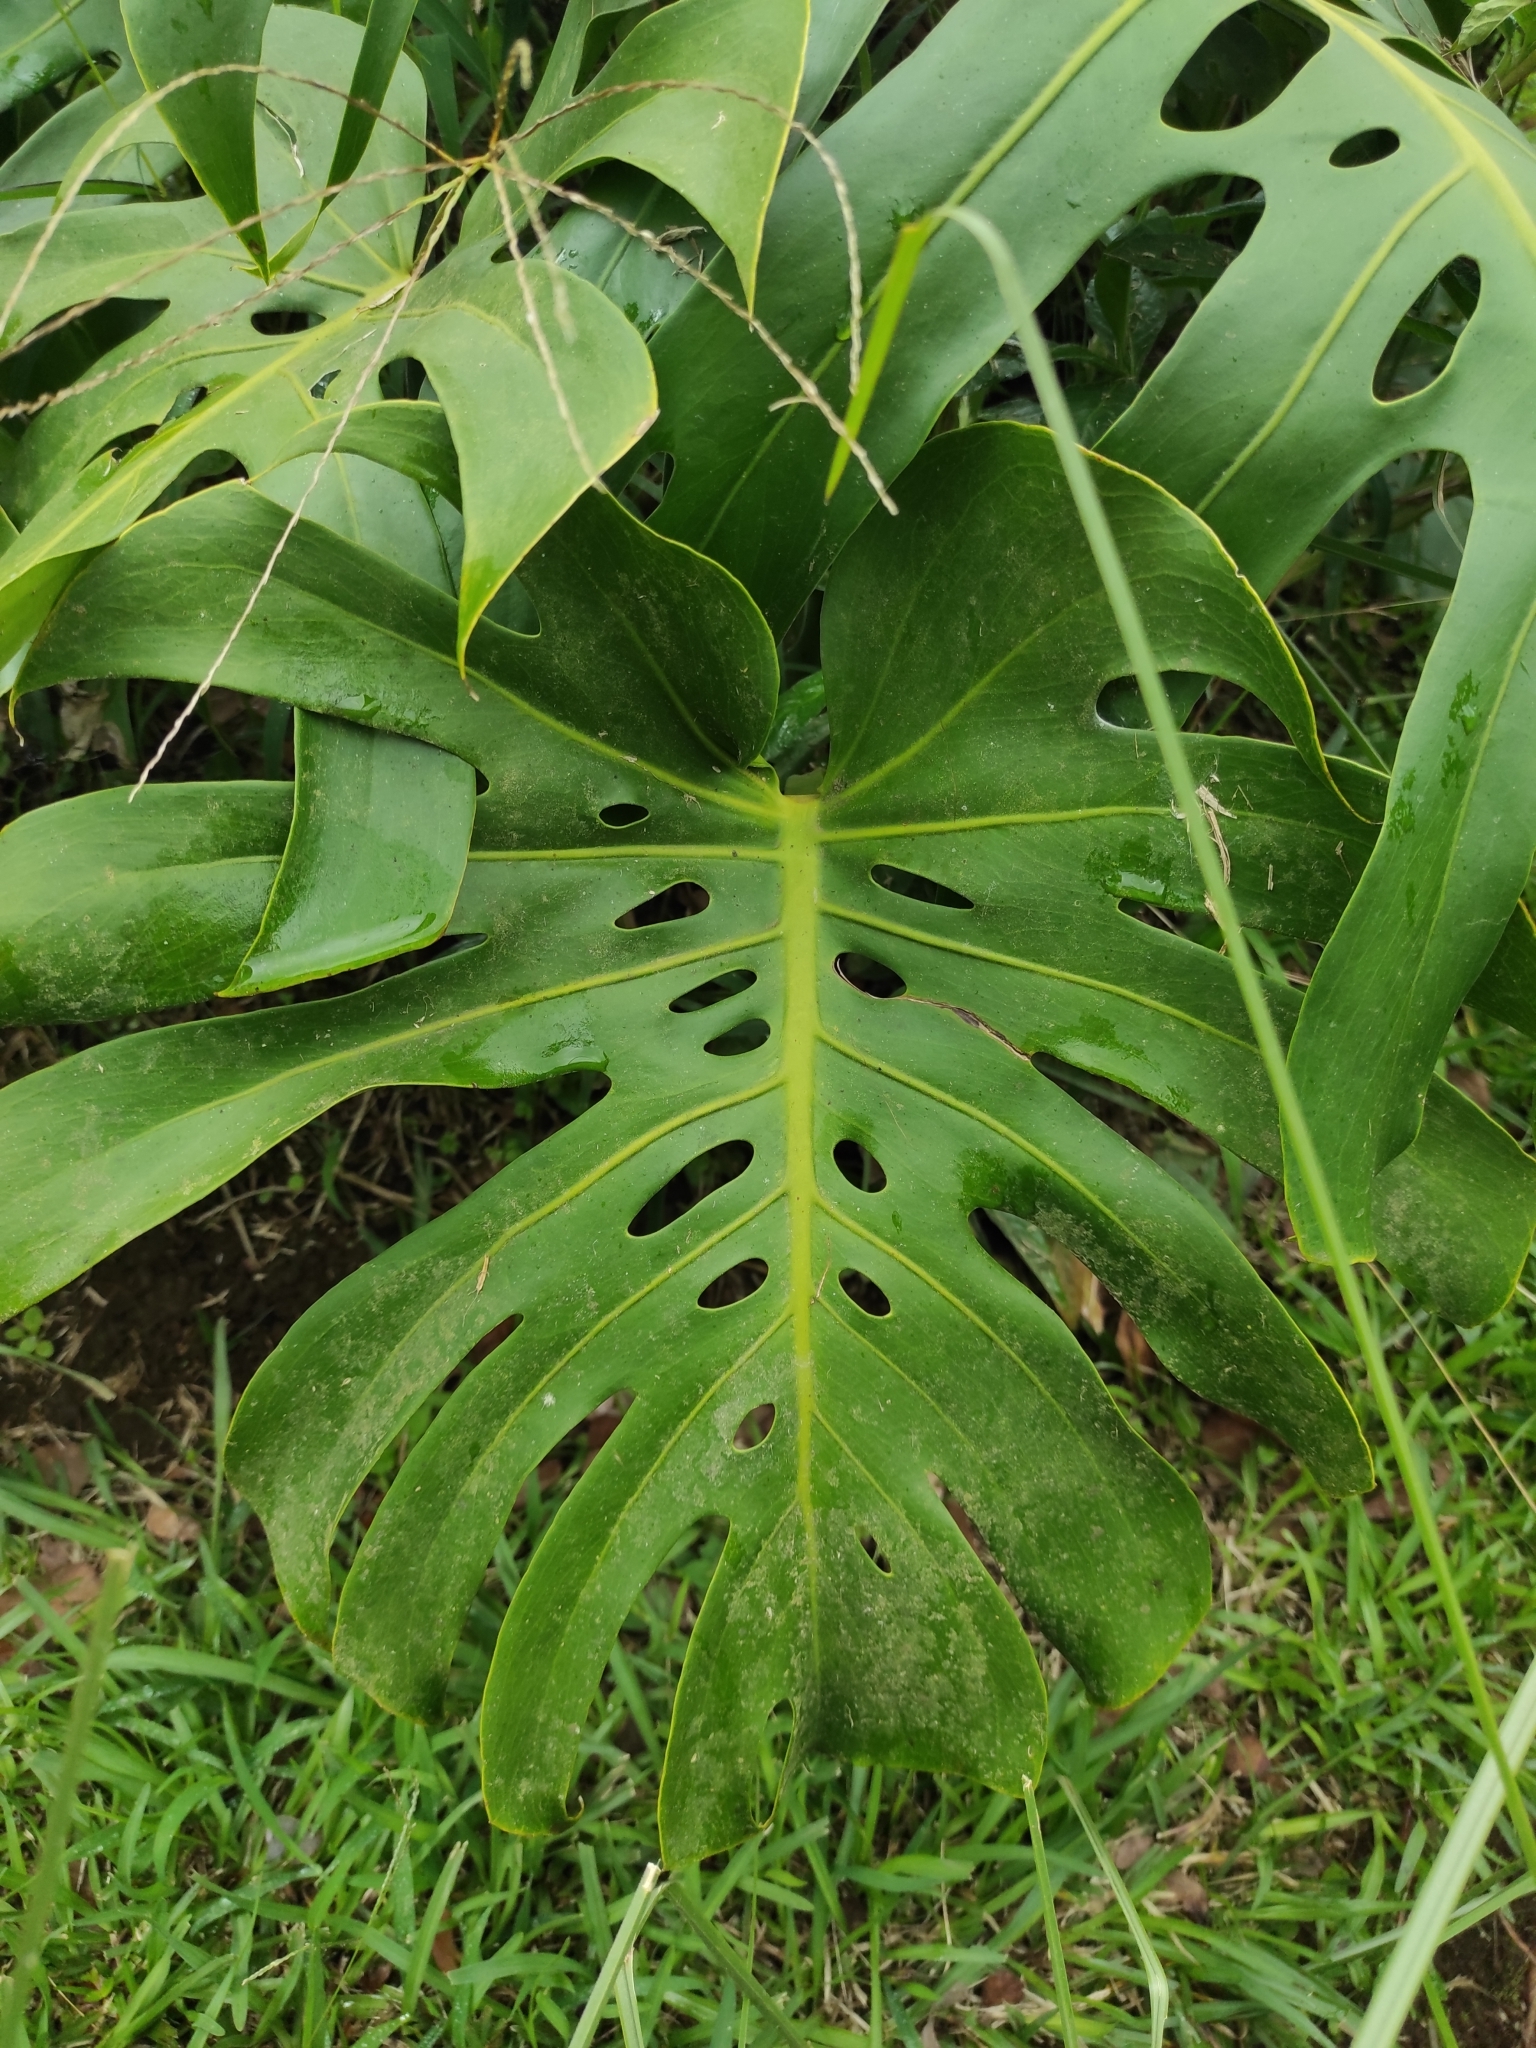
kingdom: Plantae
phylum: Tracheophyta
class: Liliopsida
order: Alismatales
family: Araceae
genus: Monstera
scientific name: Monstera deliciosa
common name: Cut-leaf-philodendron
